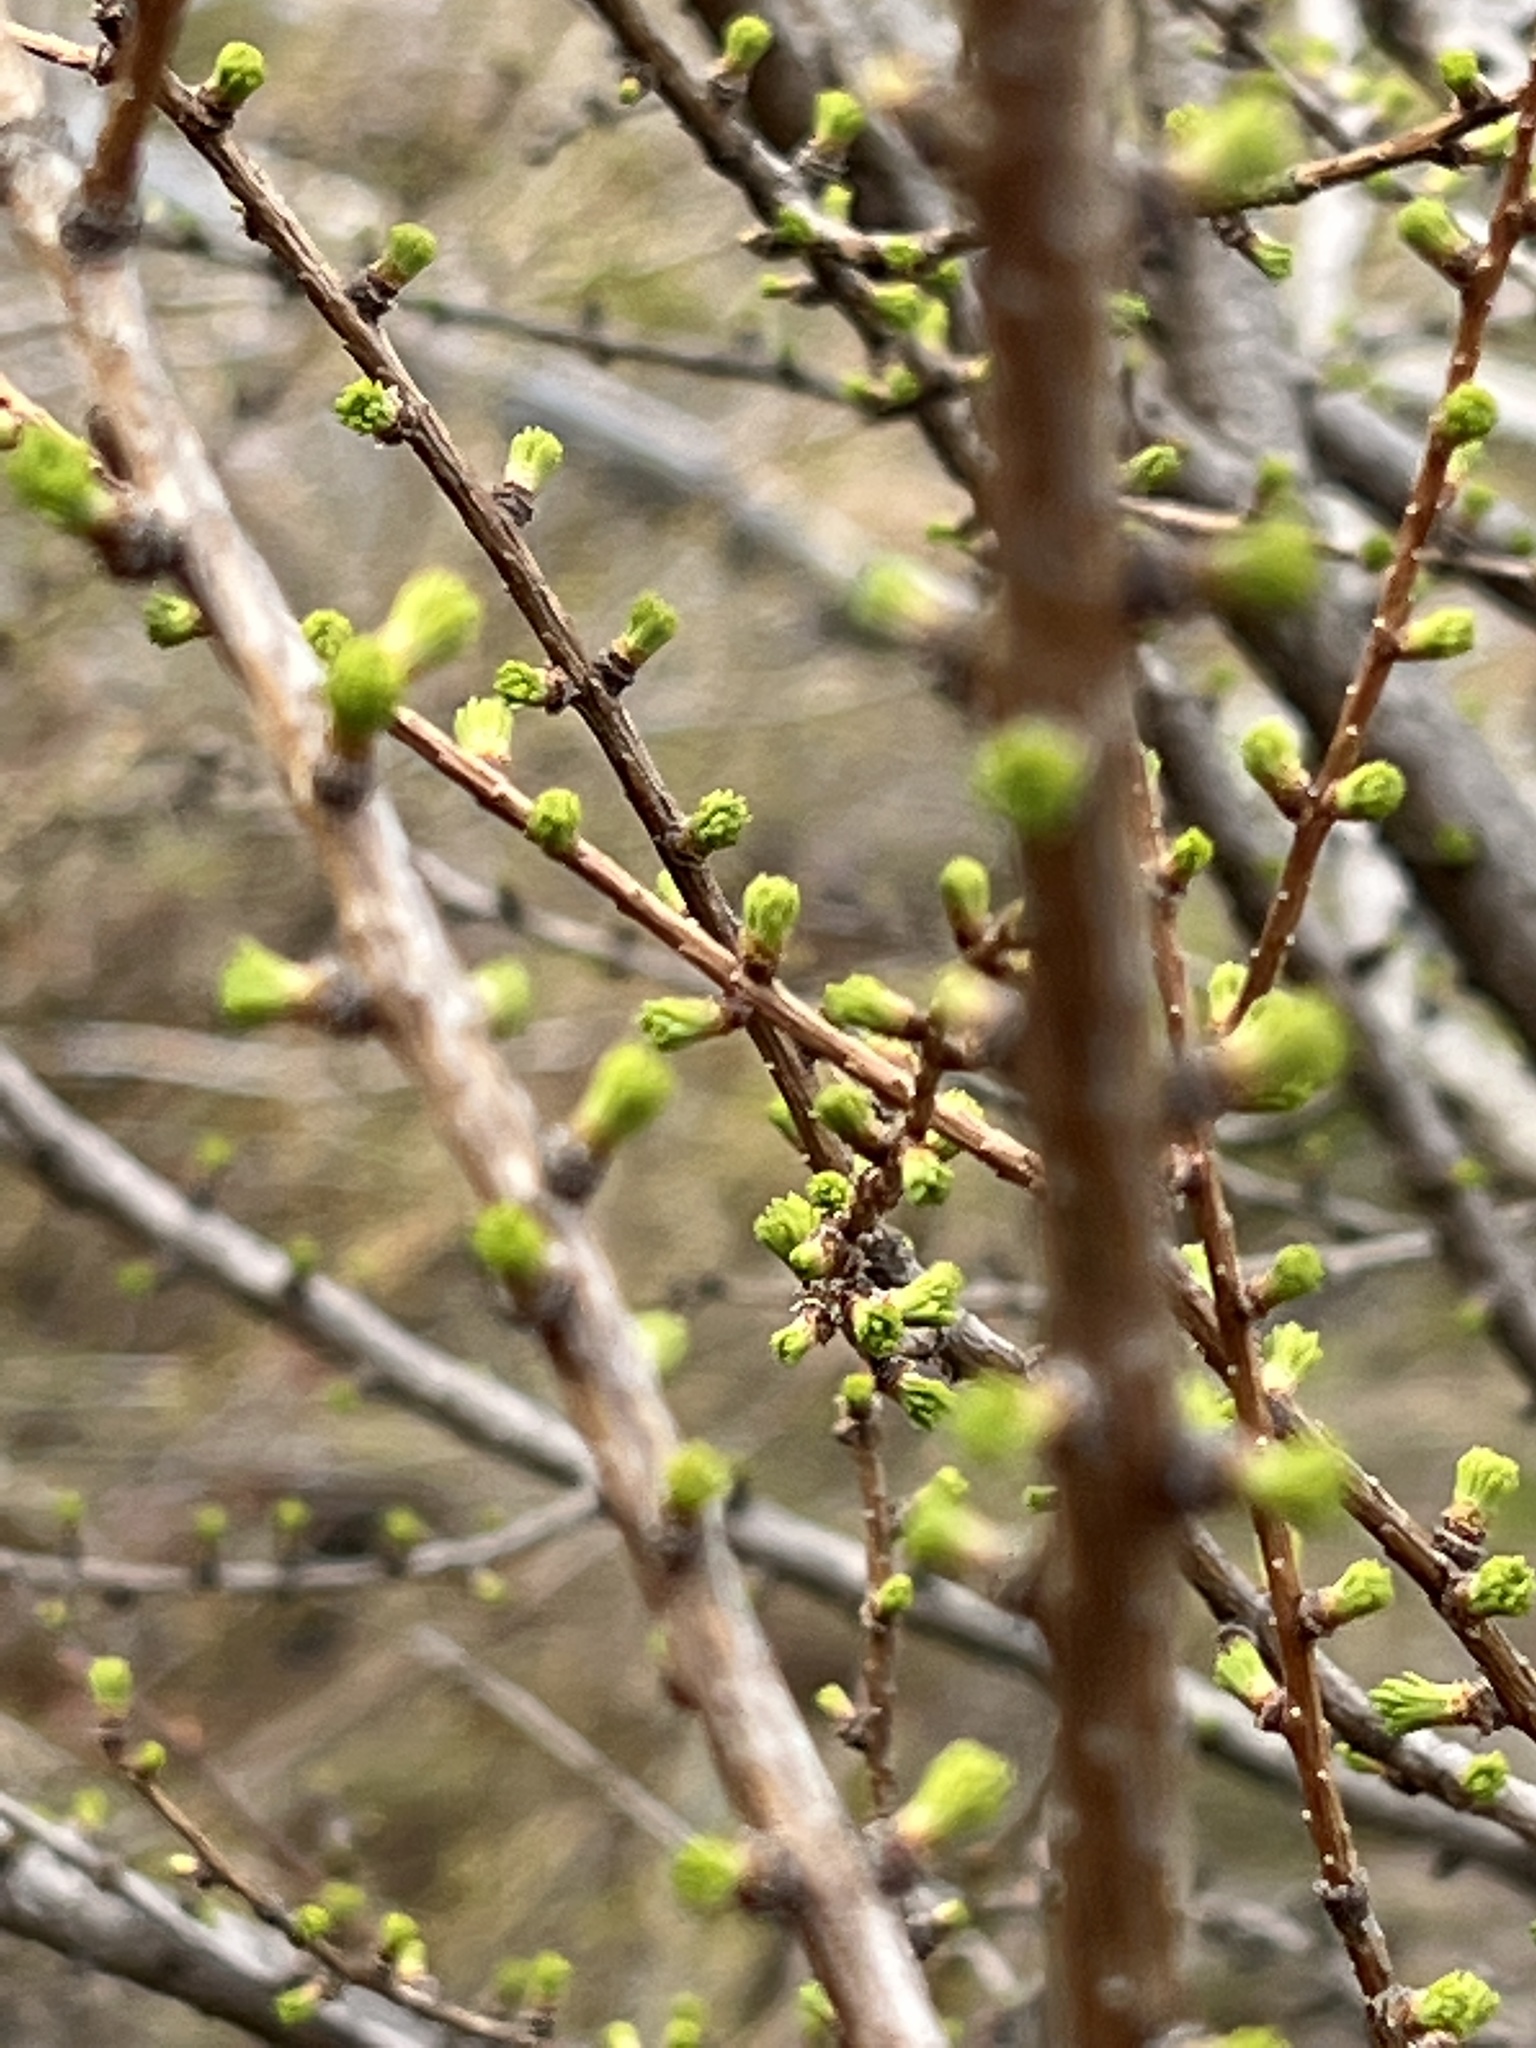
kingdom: Plantae
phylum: Tracheophyta
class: Pinopsida
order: Pinales
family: Pinaceae
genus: Larix
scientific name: Larix laricina
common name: American larch
